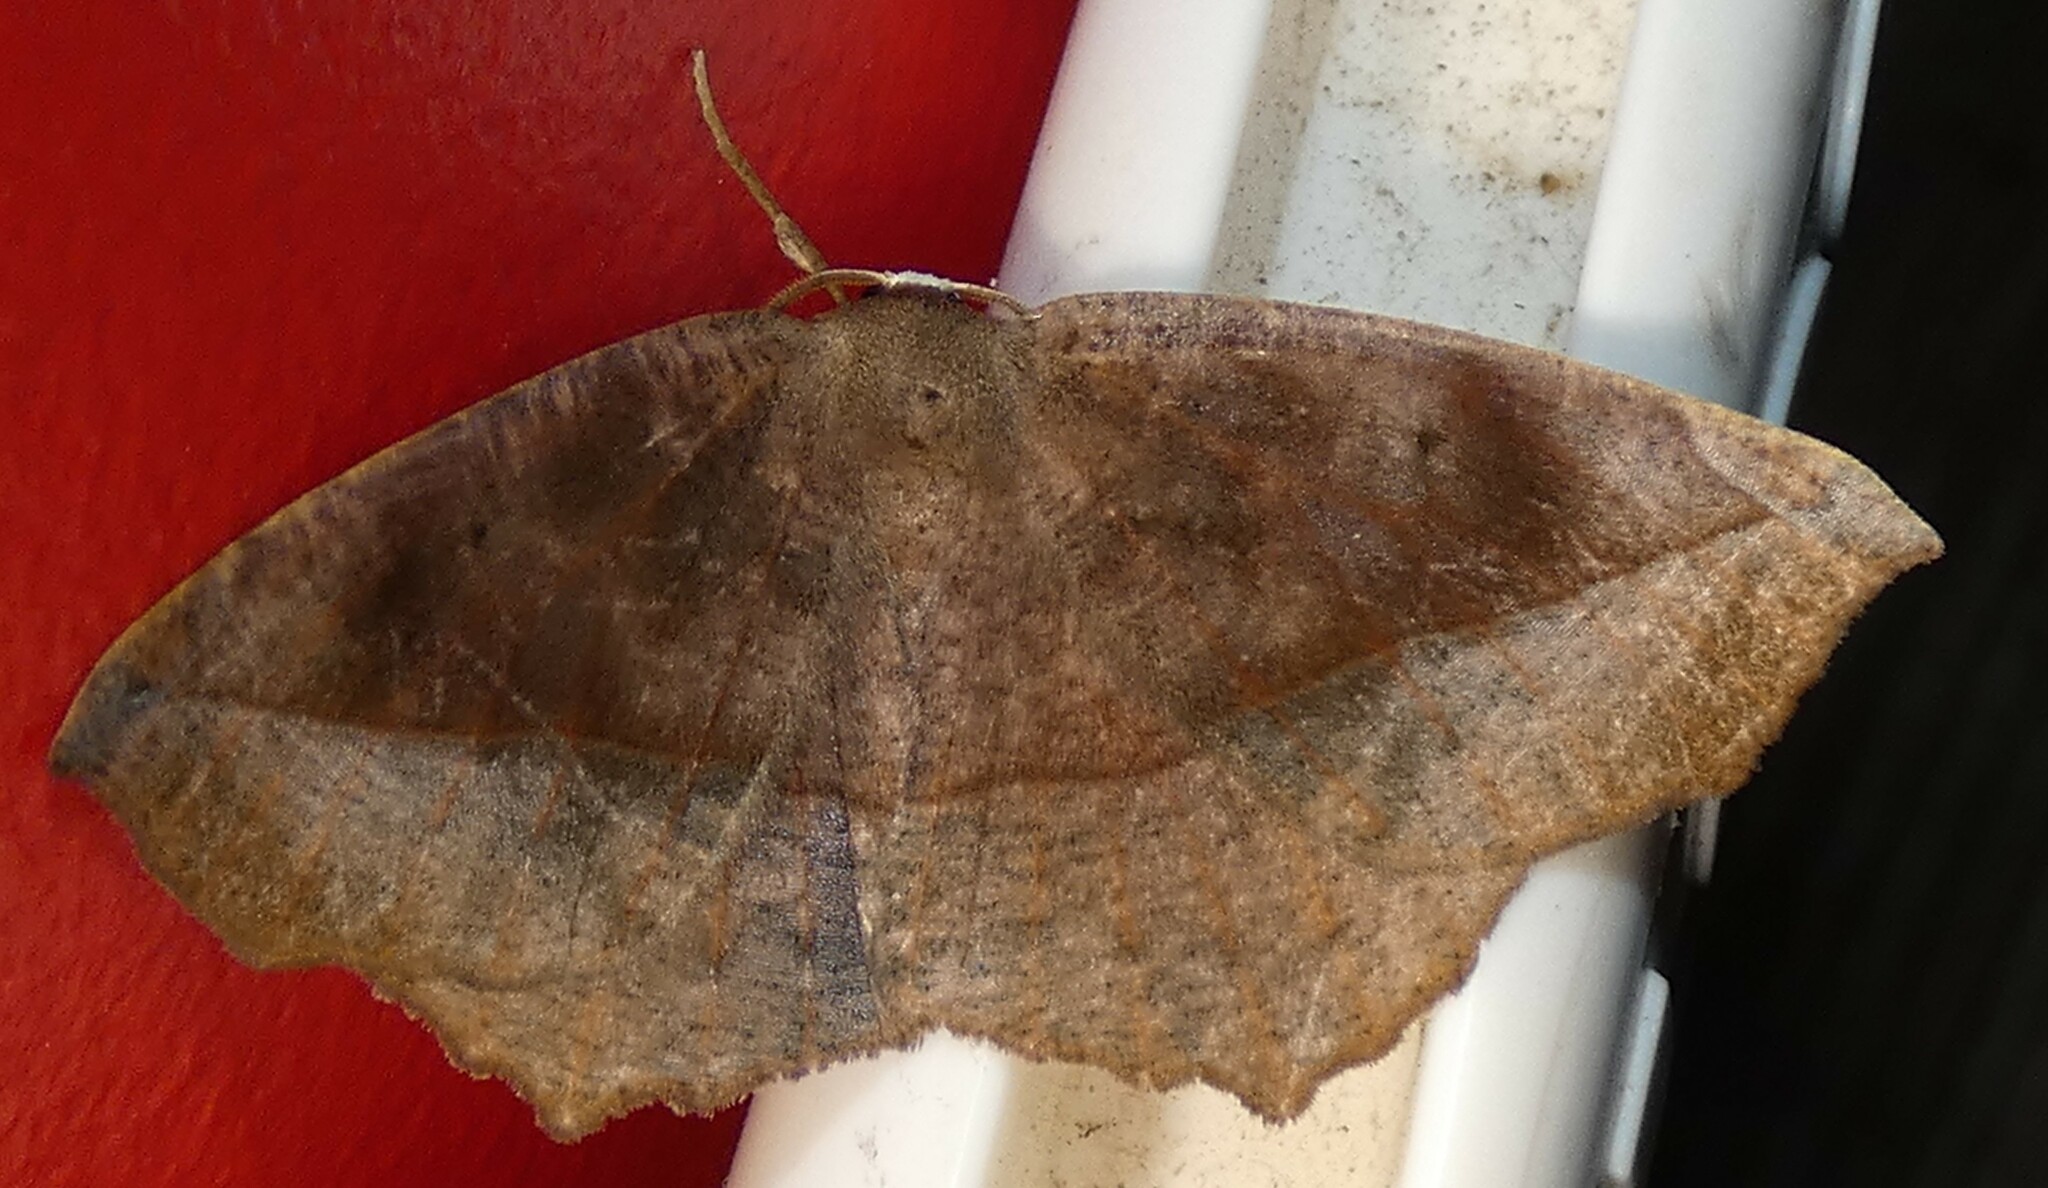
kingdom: Animalia
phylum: Arthropoda
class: Insecta
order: Lepidoptera
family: Geometridae
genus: Eutrapela
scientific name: Eutrapela clemataria
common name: Curved-toothed geometer
